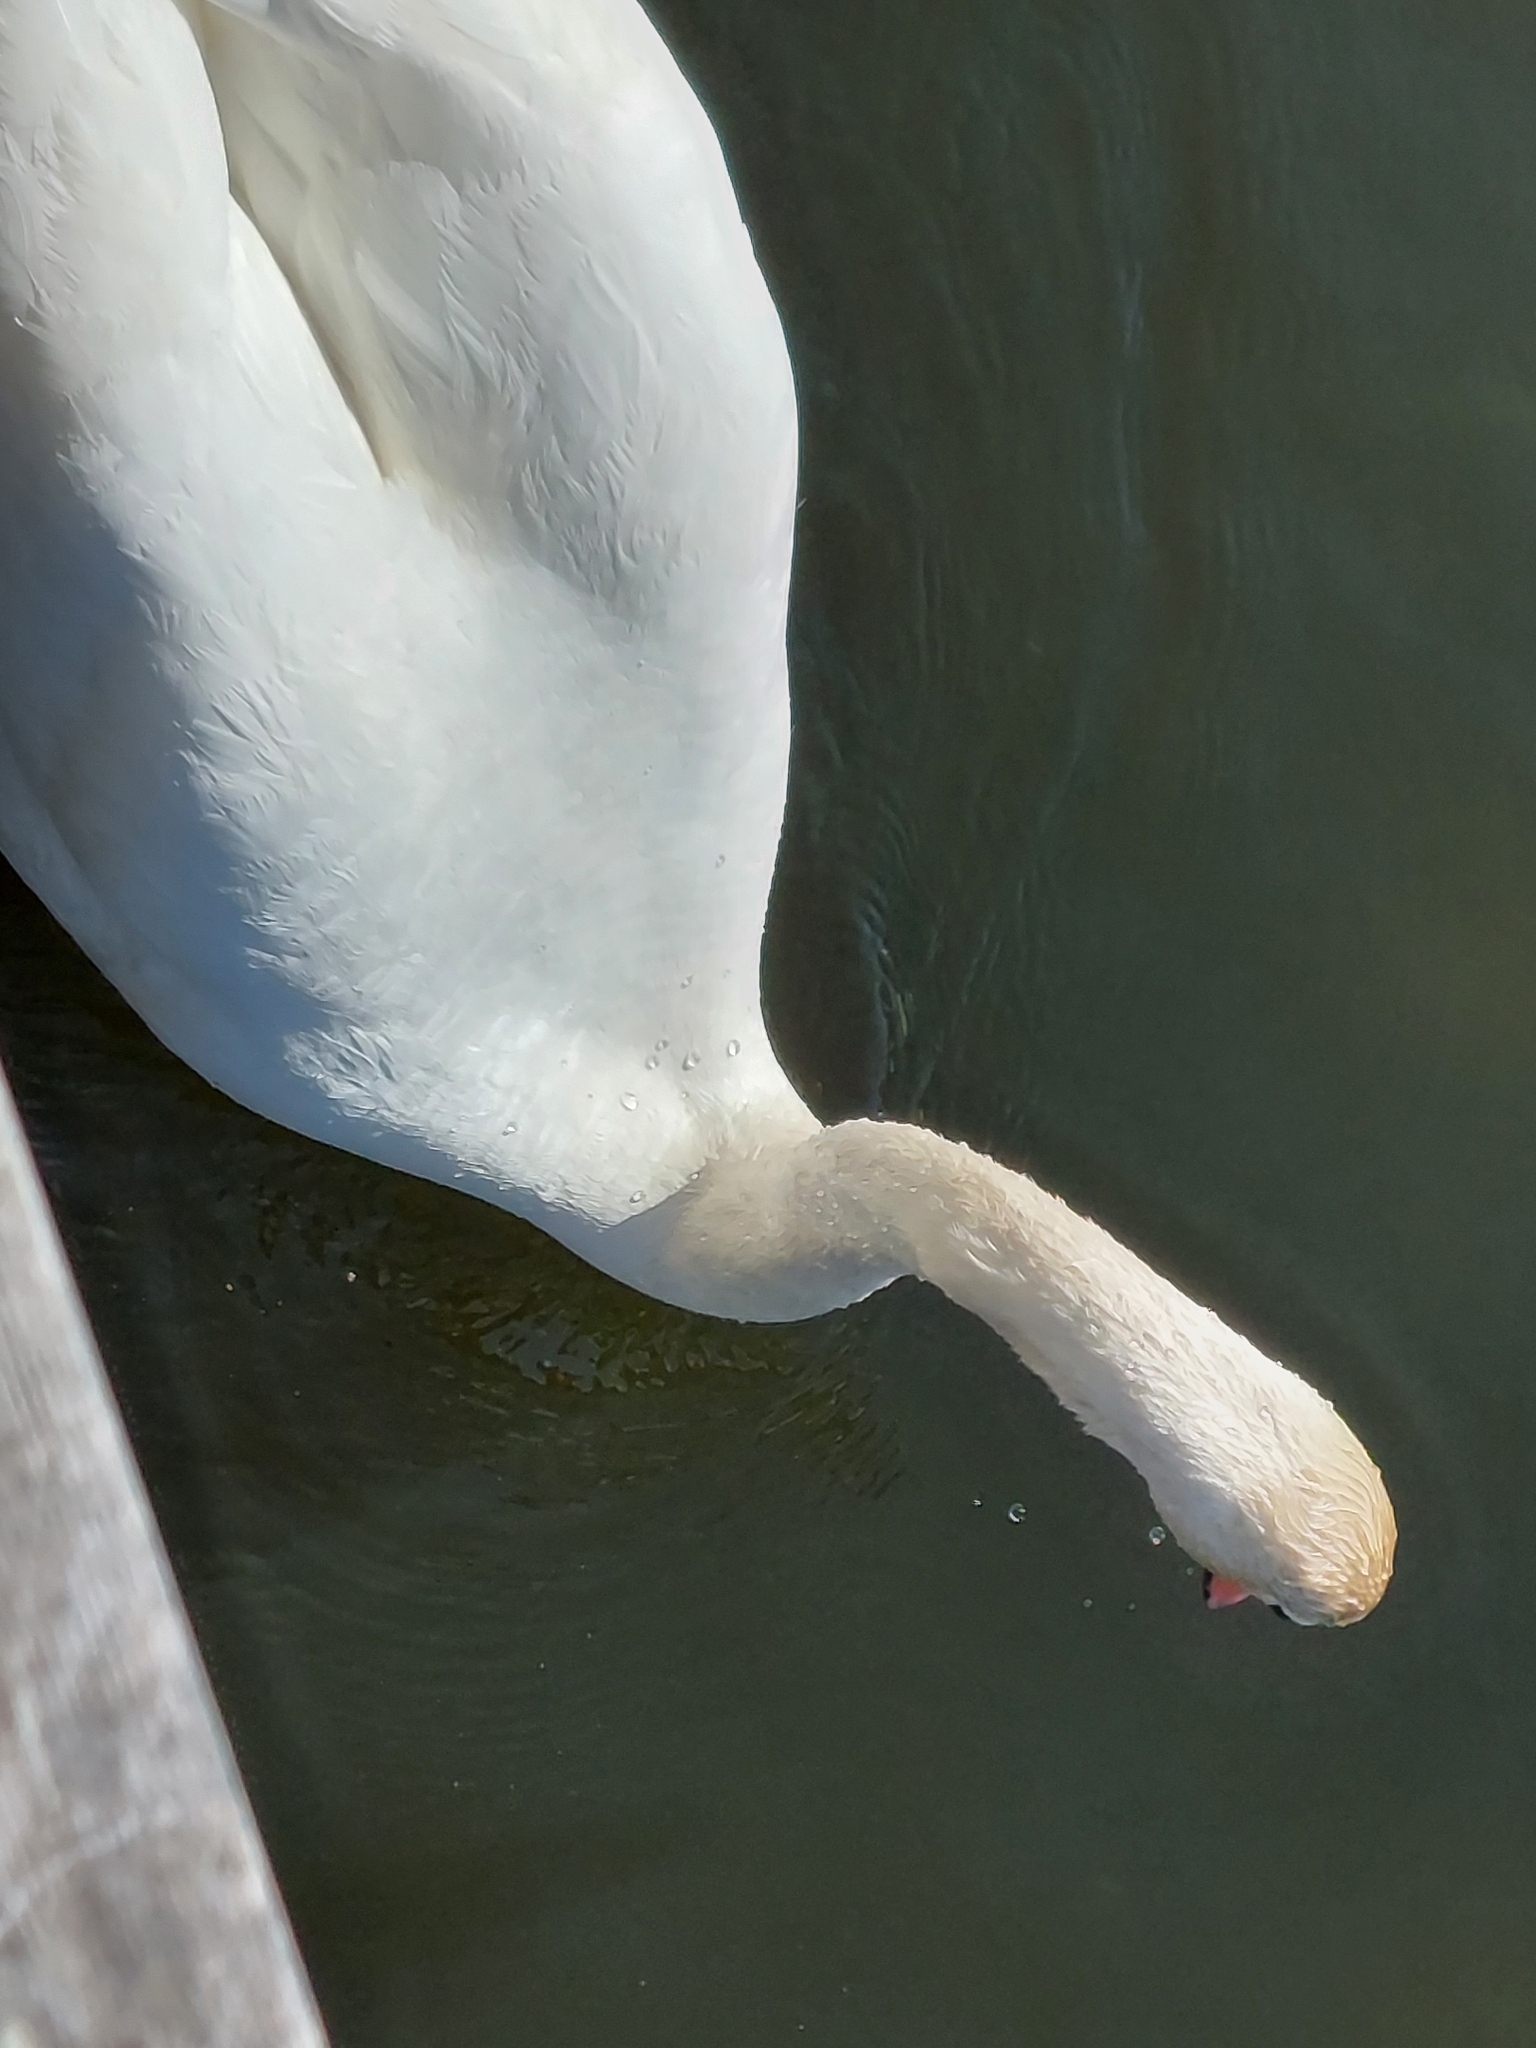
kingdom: Animalia
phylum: Chordata
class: Aves
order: Anseriformes
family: Anatidae
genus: Cygnus
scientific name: Cygnus olor
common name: Mute swan
